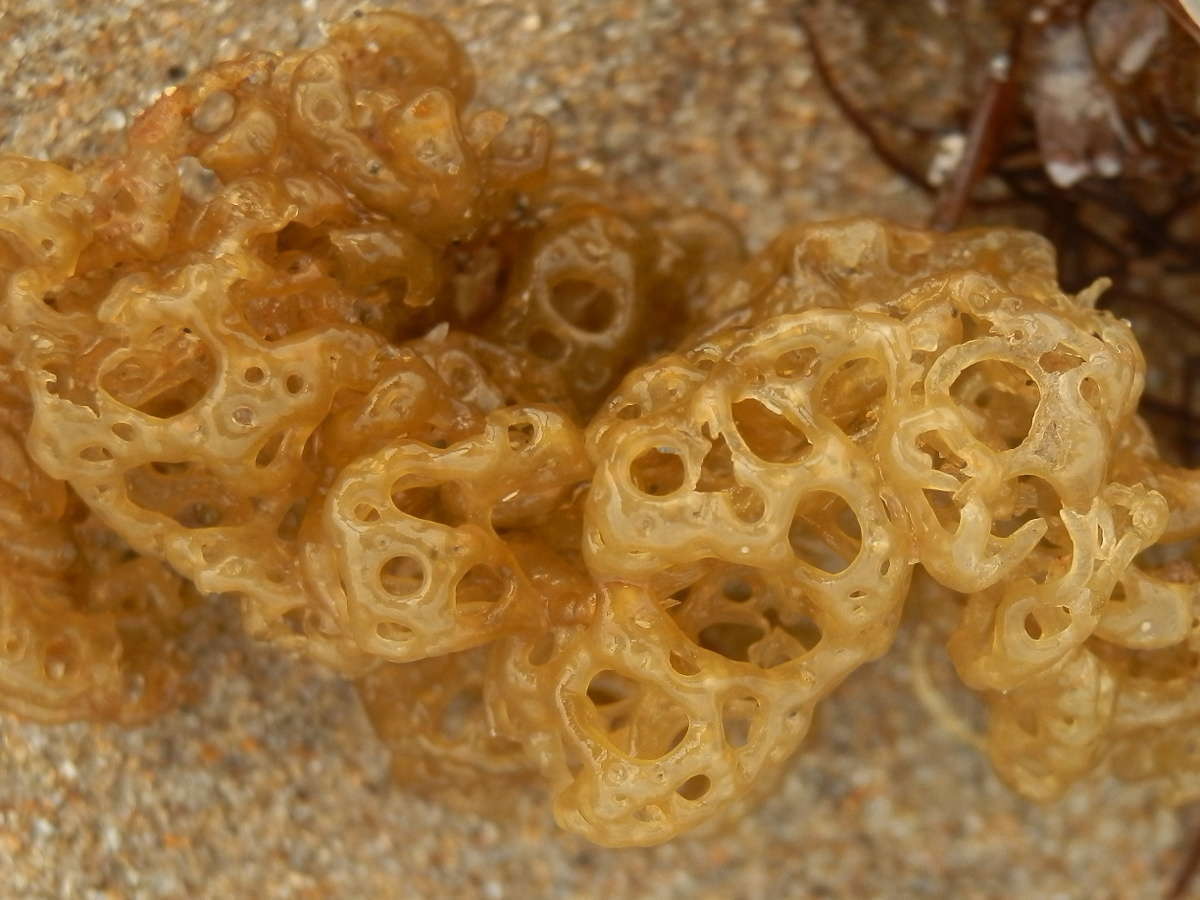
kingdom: Chromista
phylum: Ochrophyta
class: Phaeophyceae
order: Scytosiphonales
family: Scytosiphonaceae
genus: Hydroclathrus
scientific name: Hydroclathrus clathratus
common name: Swiss cheese algae
